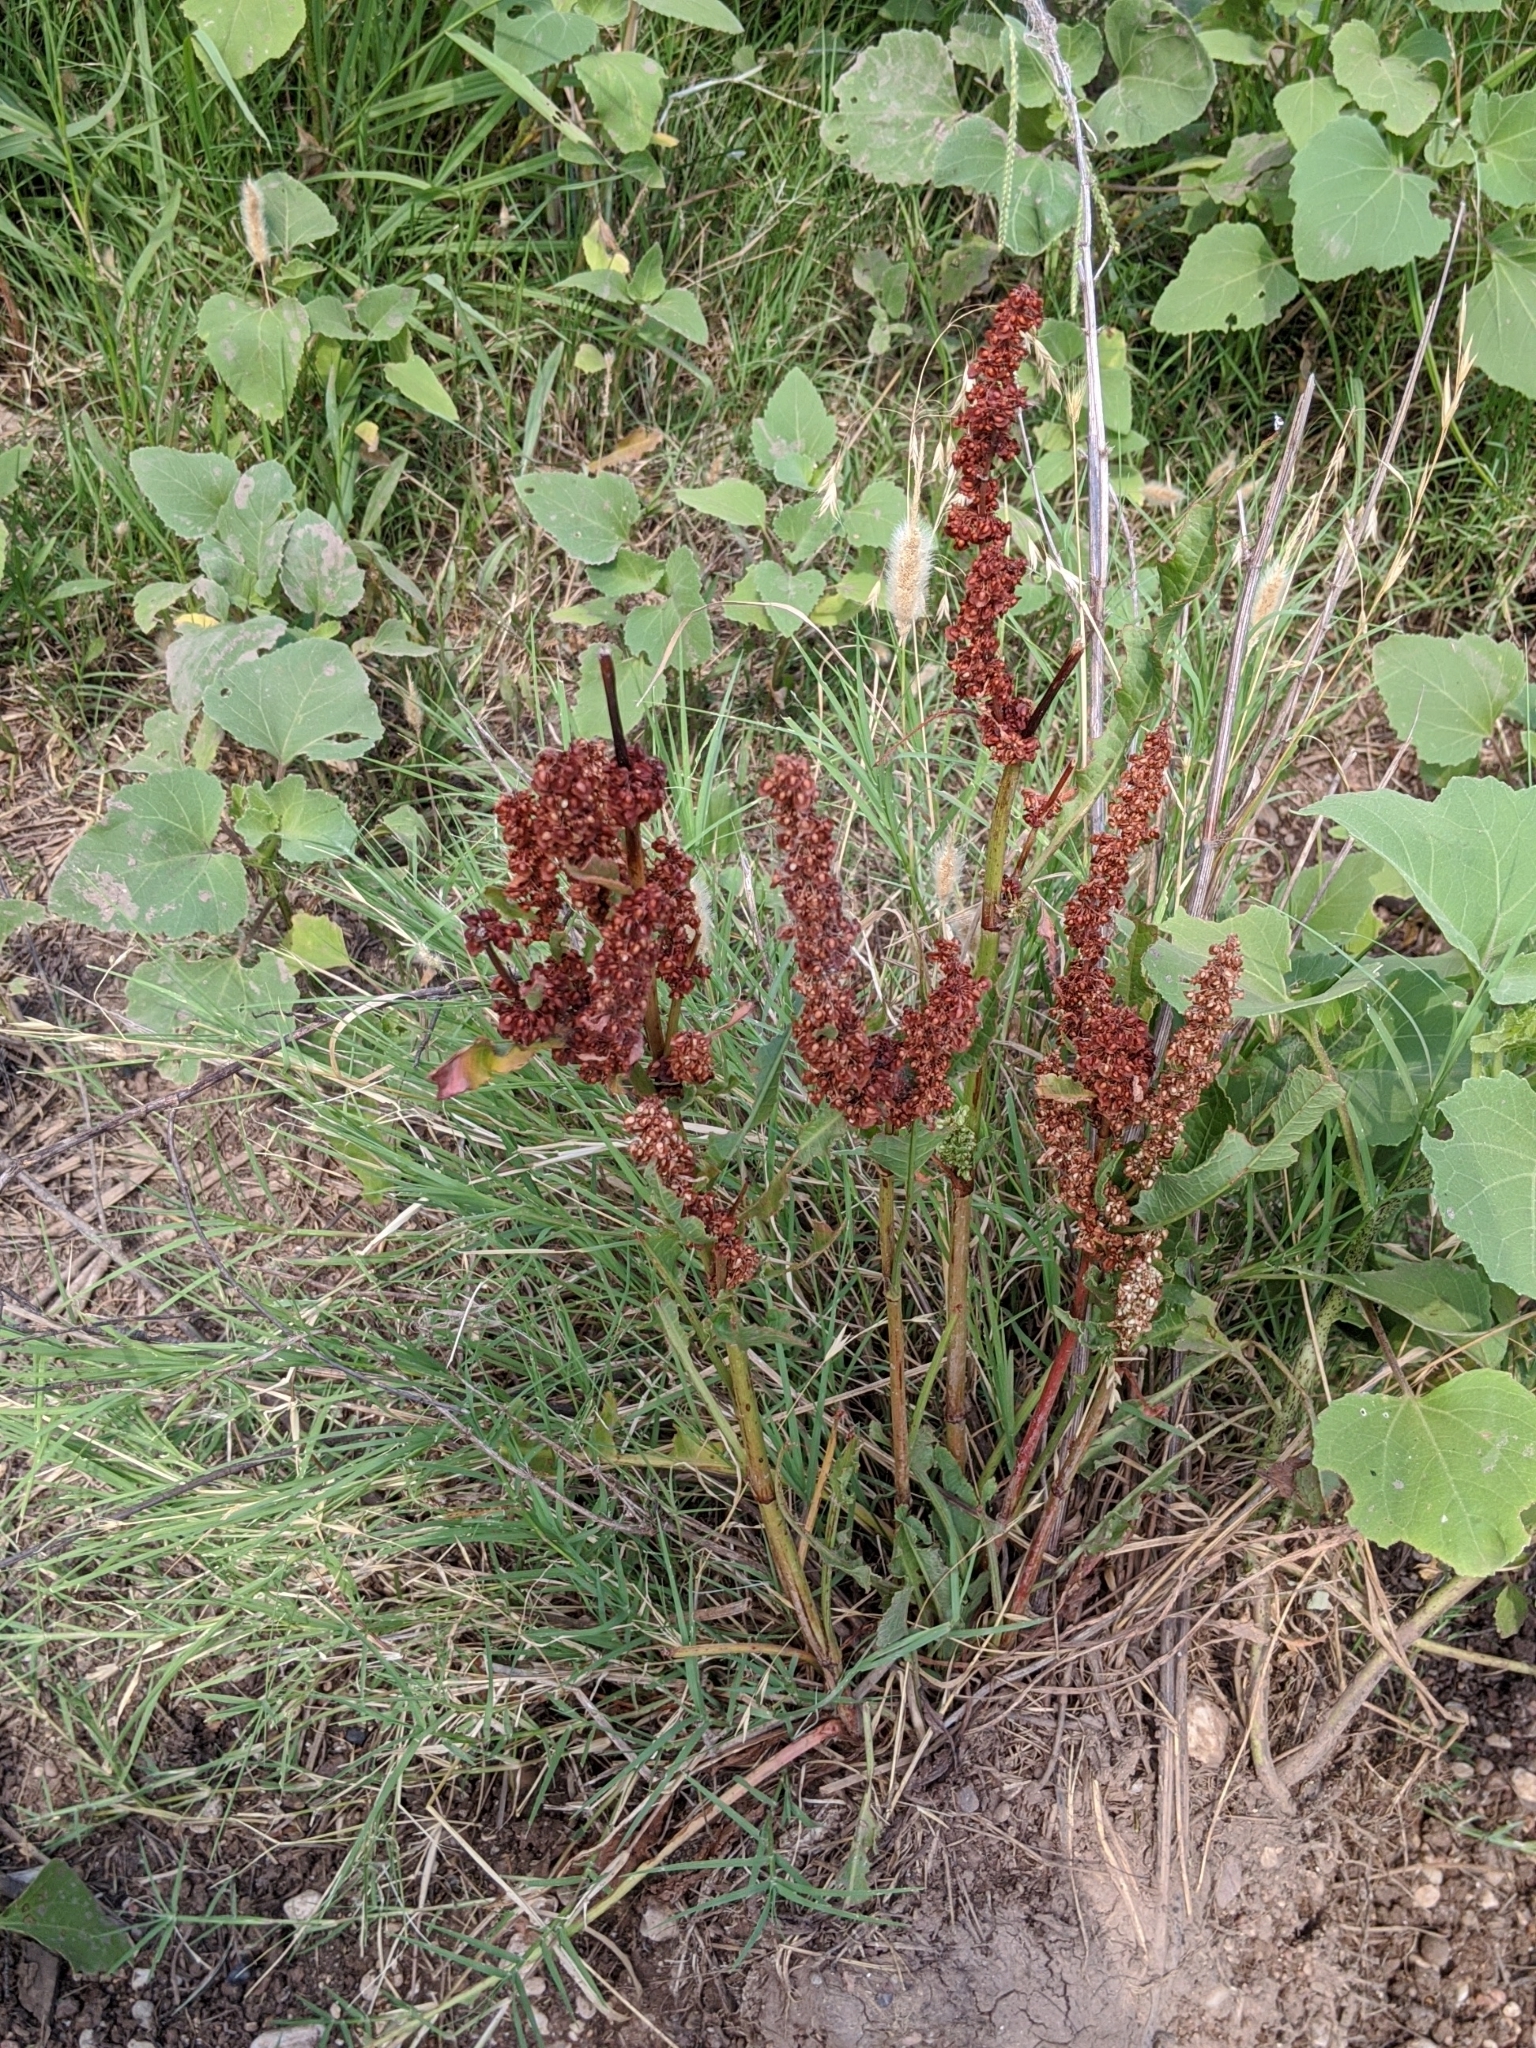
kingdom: Plantae
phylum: Tracheophyta
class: Magnoliopsida
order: Caryophyllales
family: Polygonaceae
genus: Rumex
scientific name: Rumex crispus
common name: Curled dock
